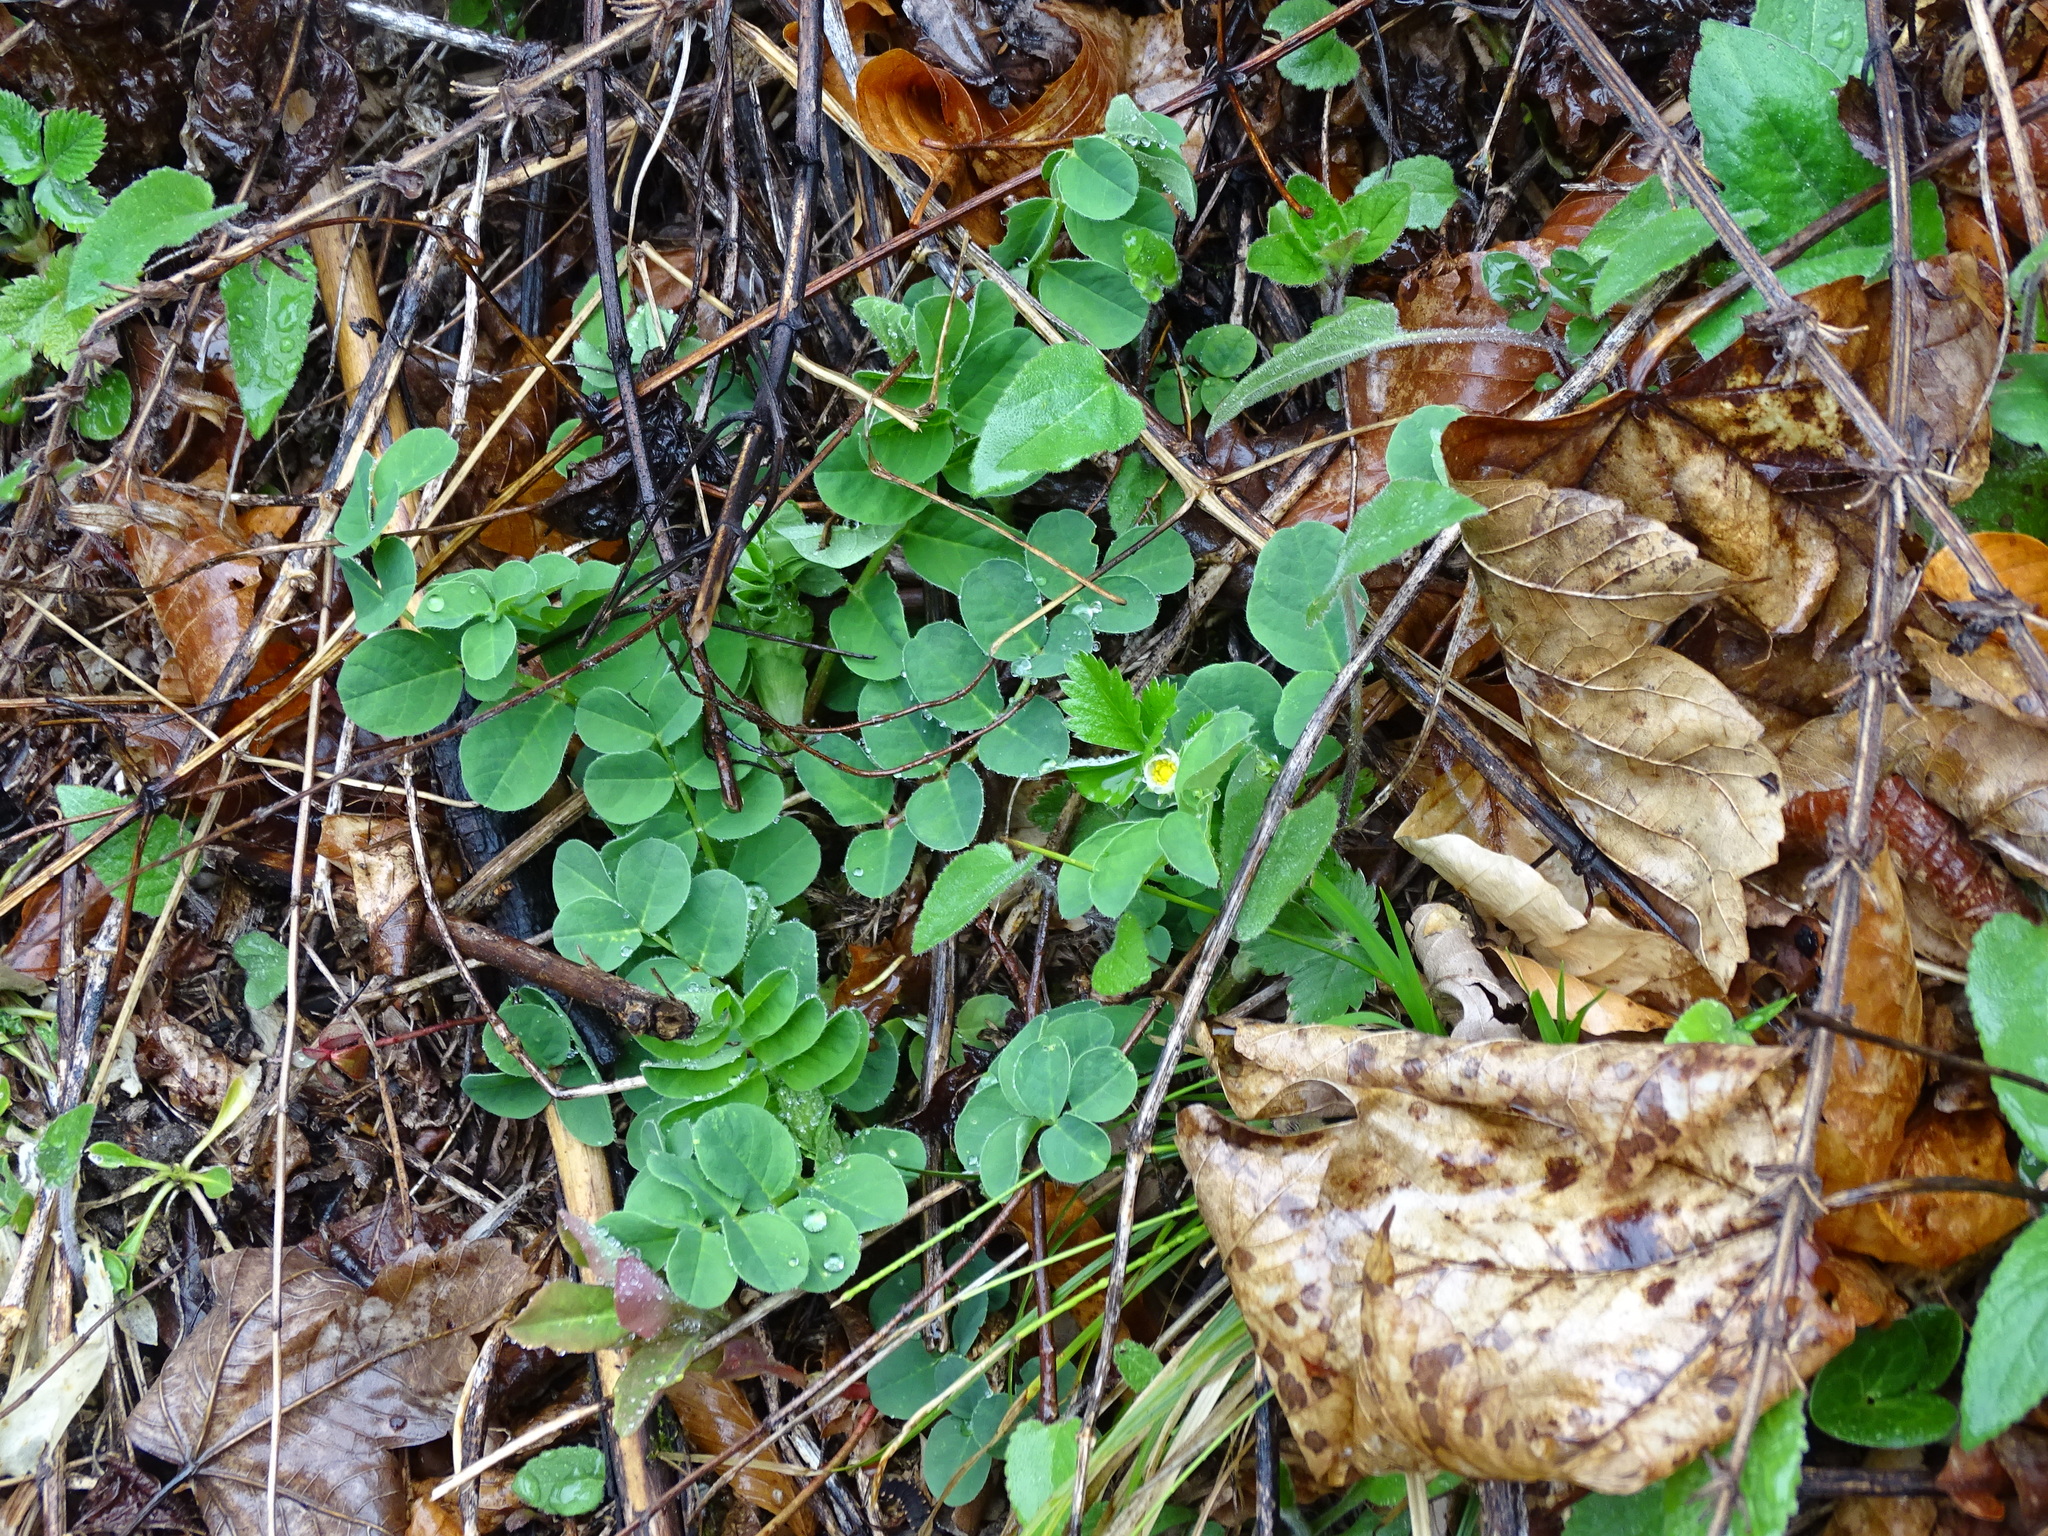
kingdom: Plantae
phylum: Tracheophyta
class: Magnoliopsida
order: Fabales
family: Fabaceae
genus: Astragalus
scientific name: Astragalus glycyphyllos
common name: Wild liquorice
